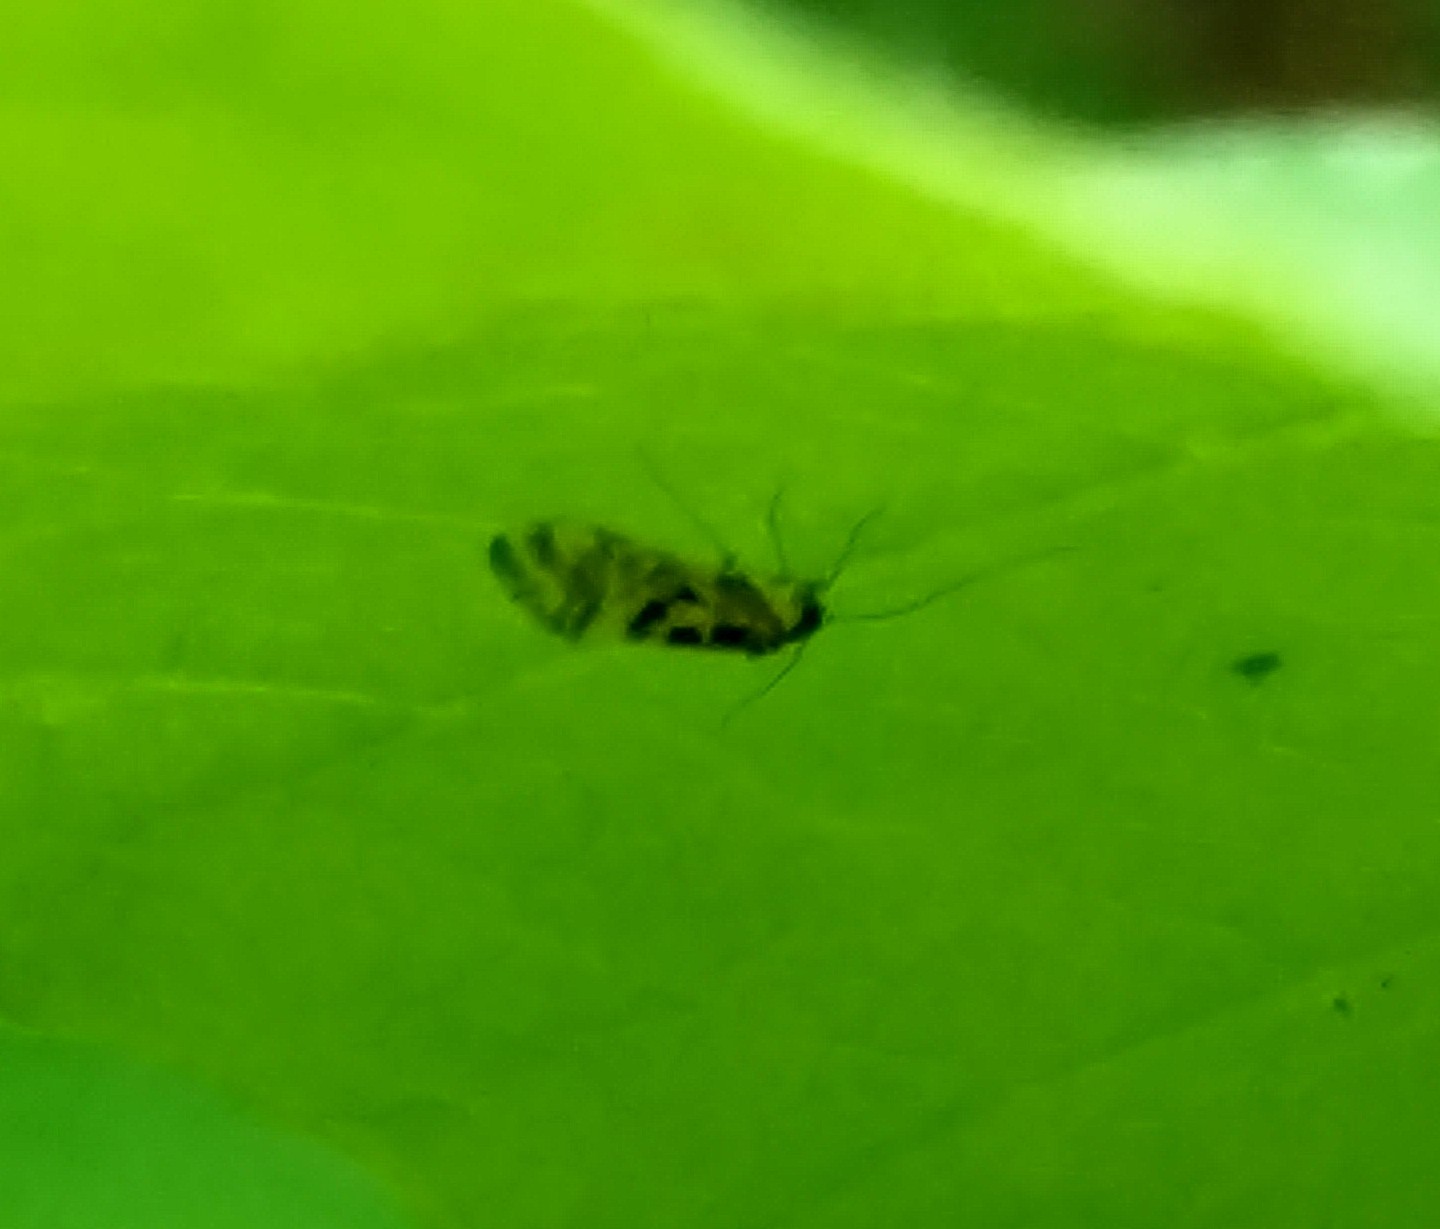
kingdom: Animalia
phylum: Arthropoda
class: Insecta
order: Psocodea
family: Stenopsocidae
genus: Graphopsocus
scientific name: Graphopsocus cruciatus
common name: Lizard bark louse
